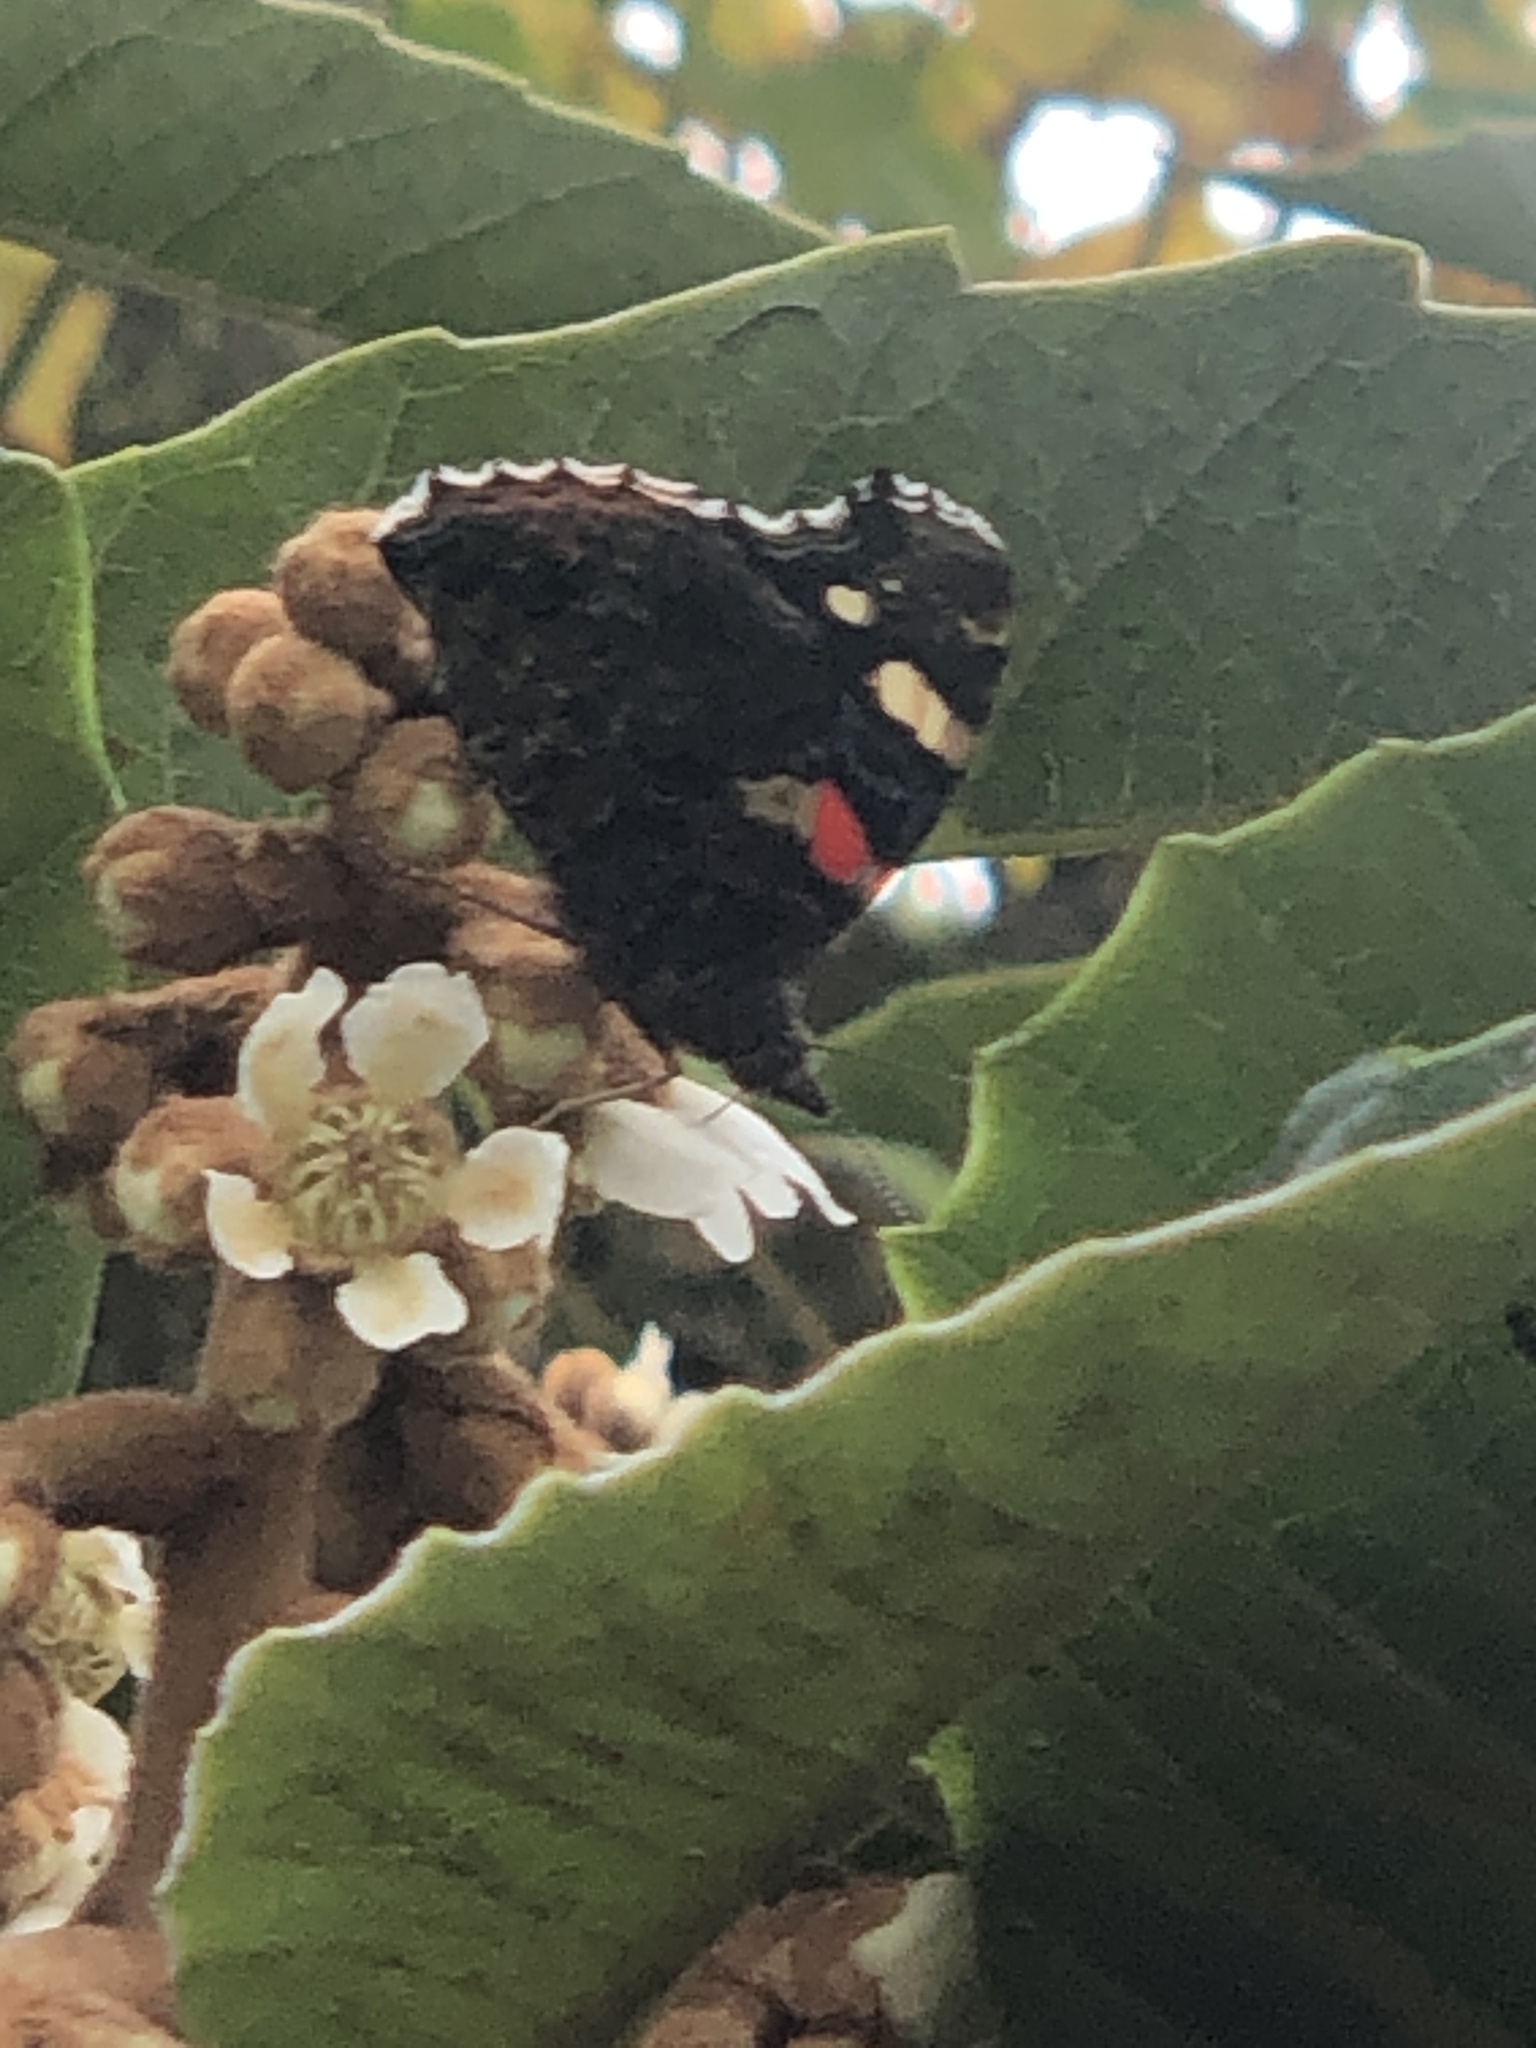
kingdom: Animalia
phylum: Arthropoda
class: Insecta
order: Lepidoptera
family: Nymphalidae
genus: Vanessa
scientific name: Vanessa atalanta
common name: Red admiral
